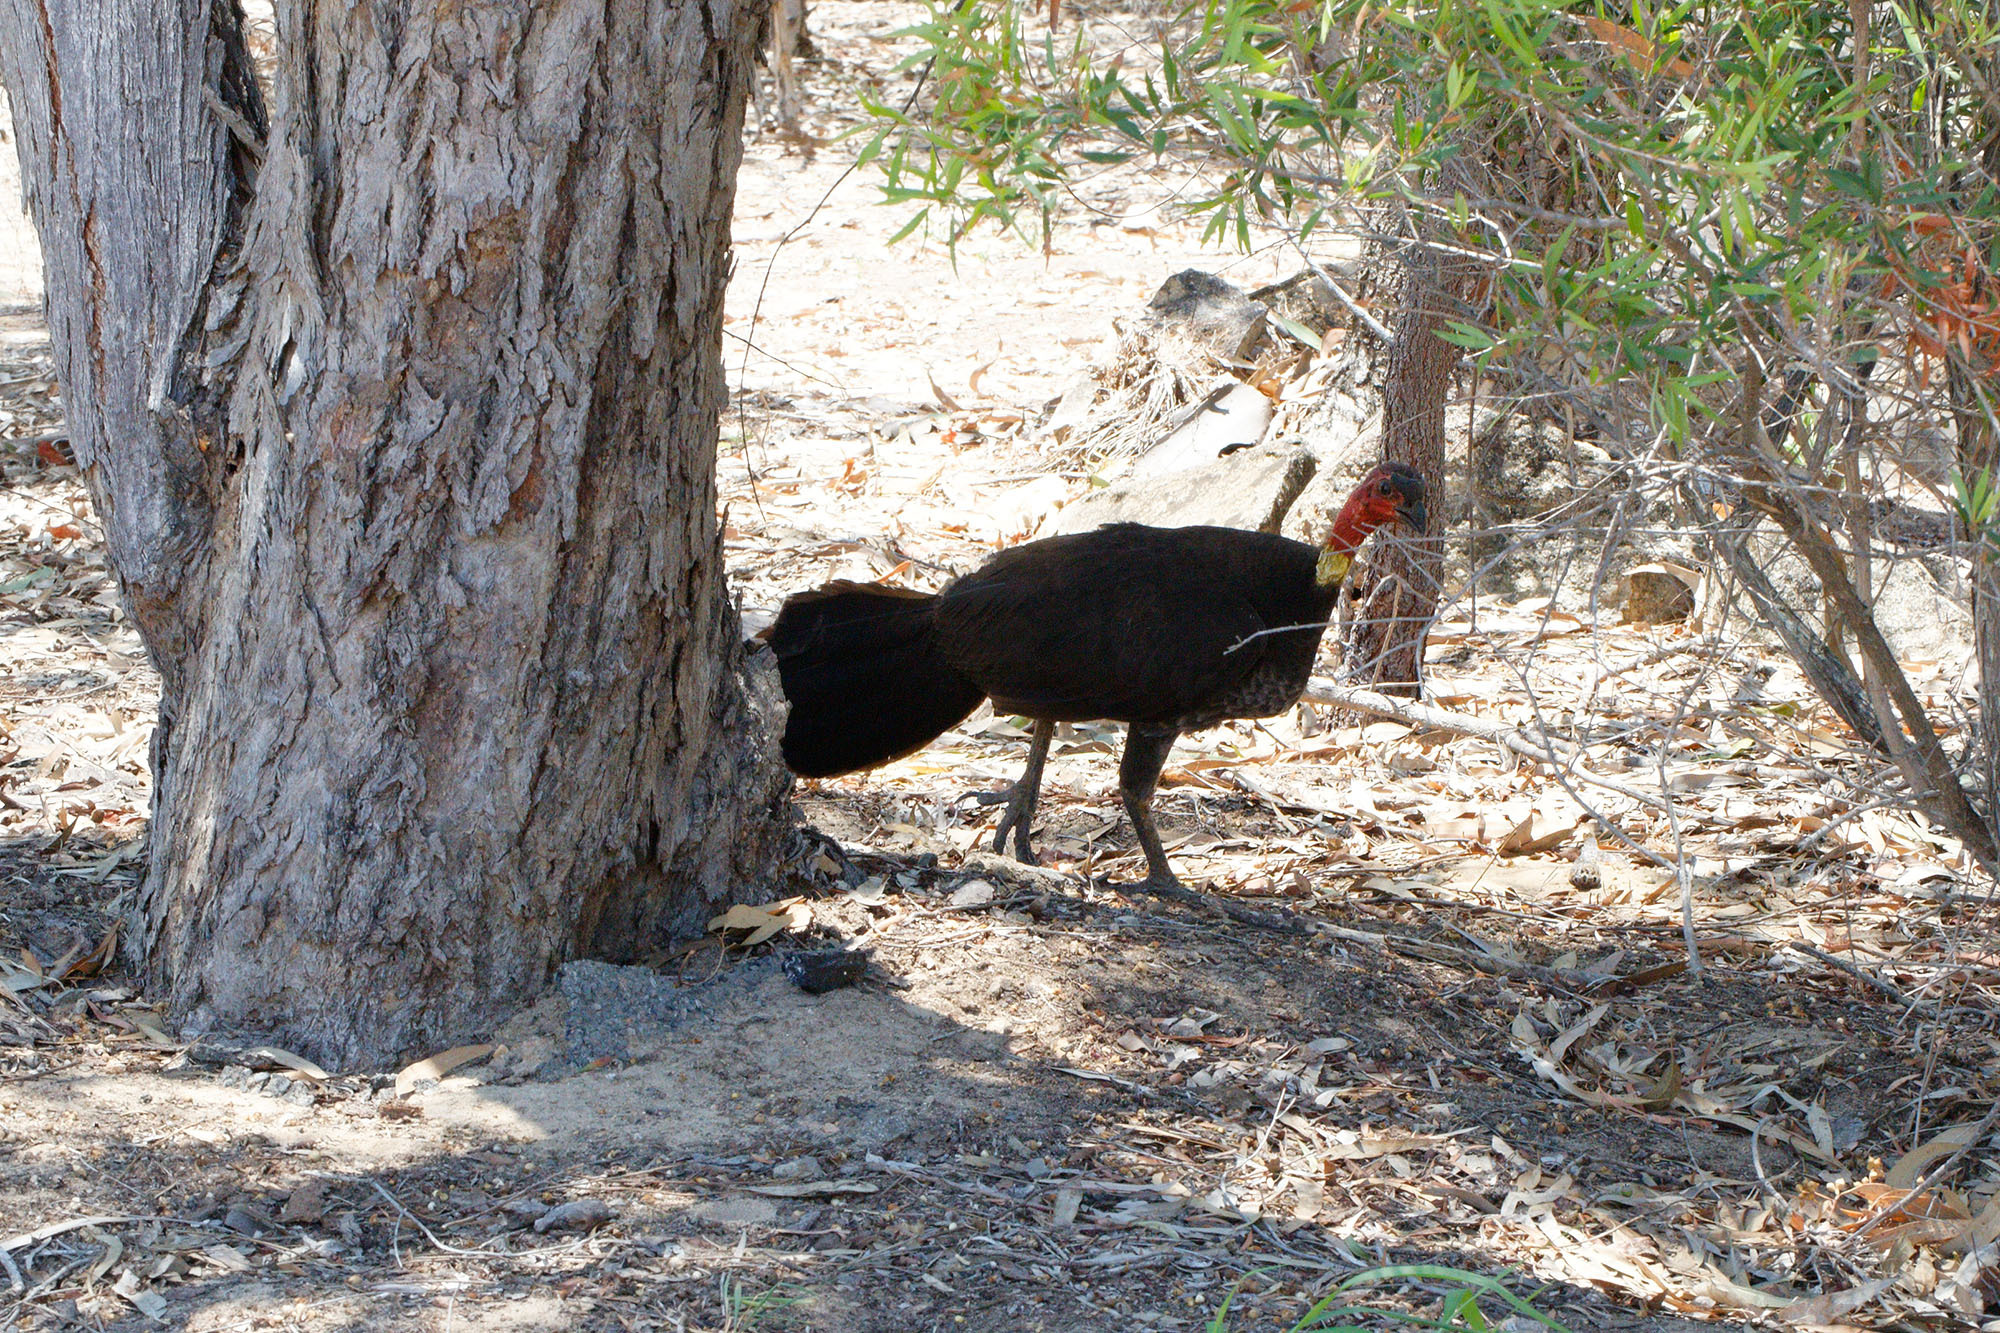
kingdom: Animalia
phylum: Chordata
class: Aves
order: Galliformes
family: Megapodiidae
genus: Alectura
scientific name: Alectura lathami
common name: Australian brushturkey
